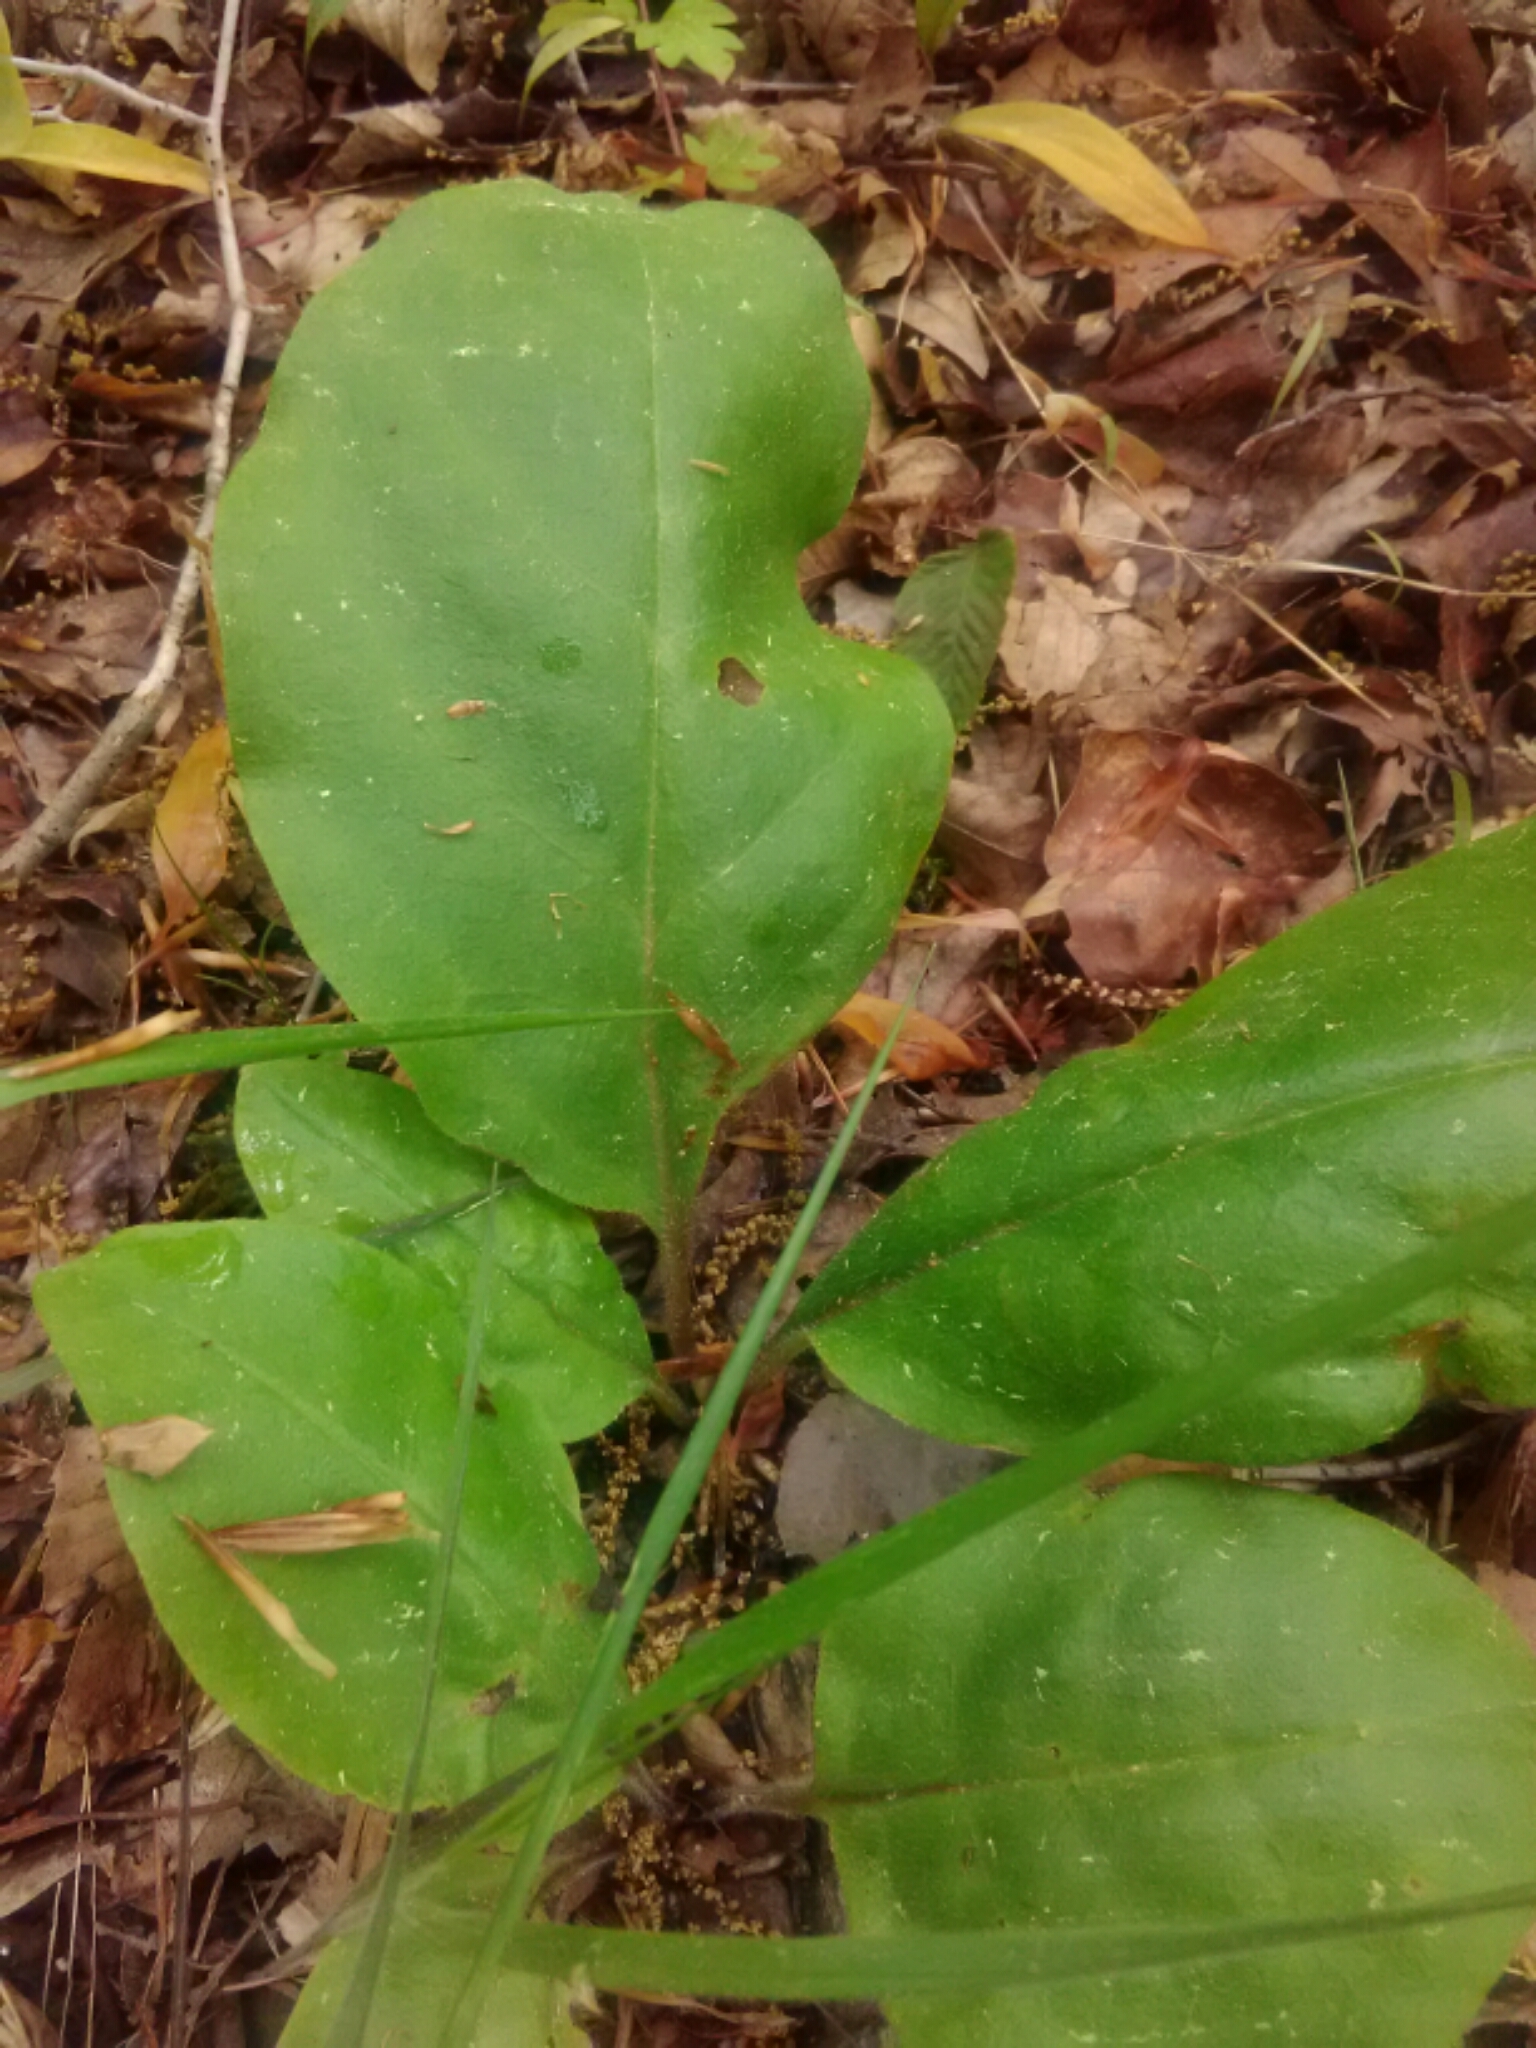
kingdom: Plantae
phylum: Tracheophyta
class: Magnoliopsida
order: Boraginales
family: Boraginaceae
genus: Andersonglossum
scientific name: Andersonglossum virginianum
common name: Wild comfrey
